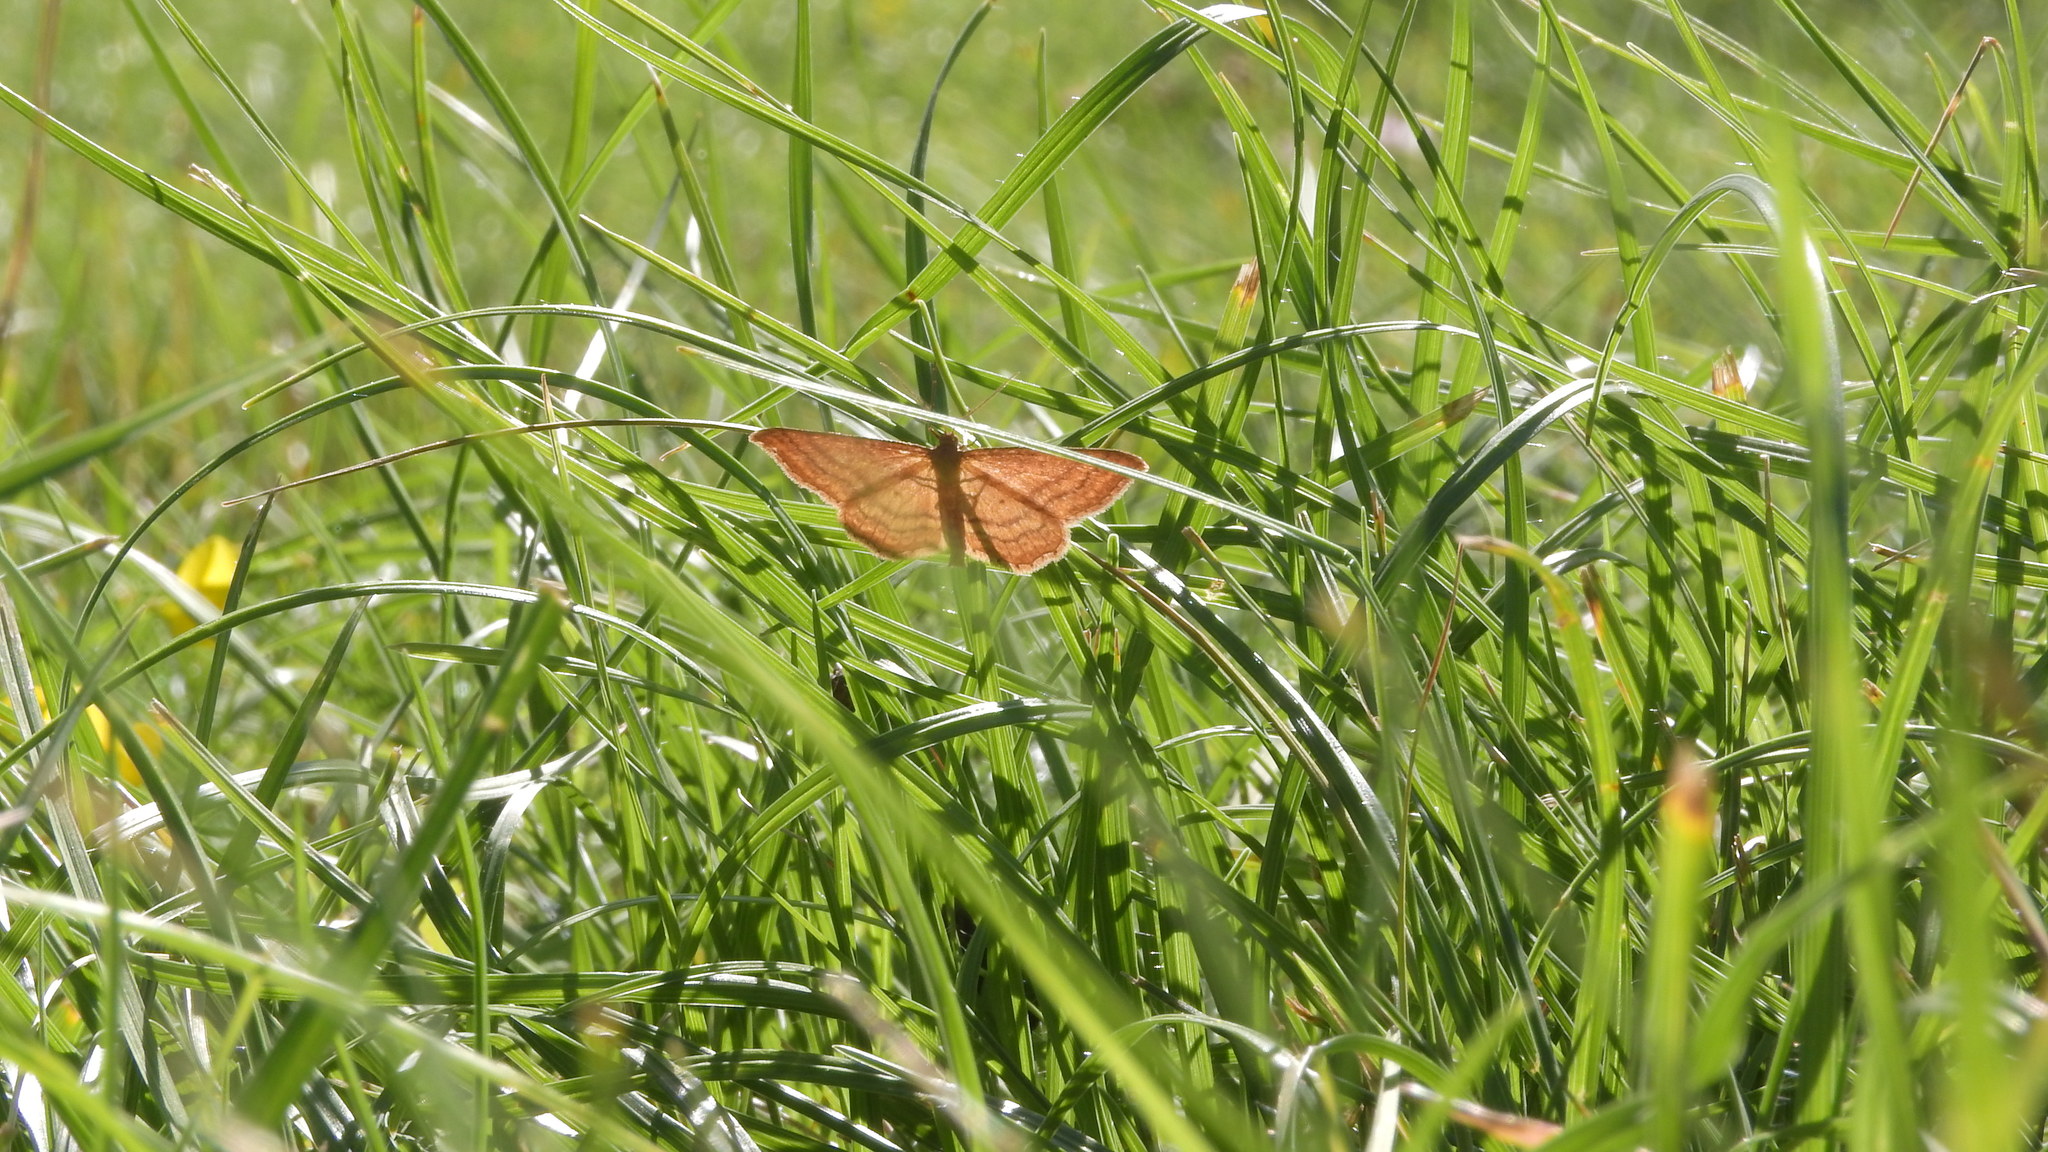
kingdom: Animalia
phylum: Arthropoda
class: Insecta
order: Lepidoptera
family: Geometridae
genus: Idaea
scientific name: Idaea ochrata
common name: Bright wave
